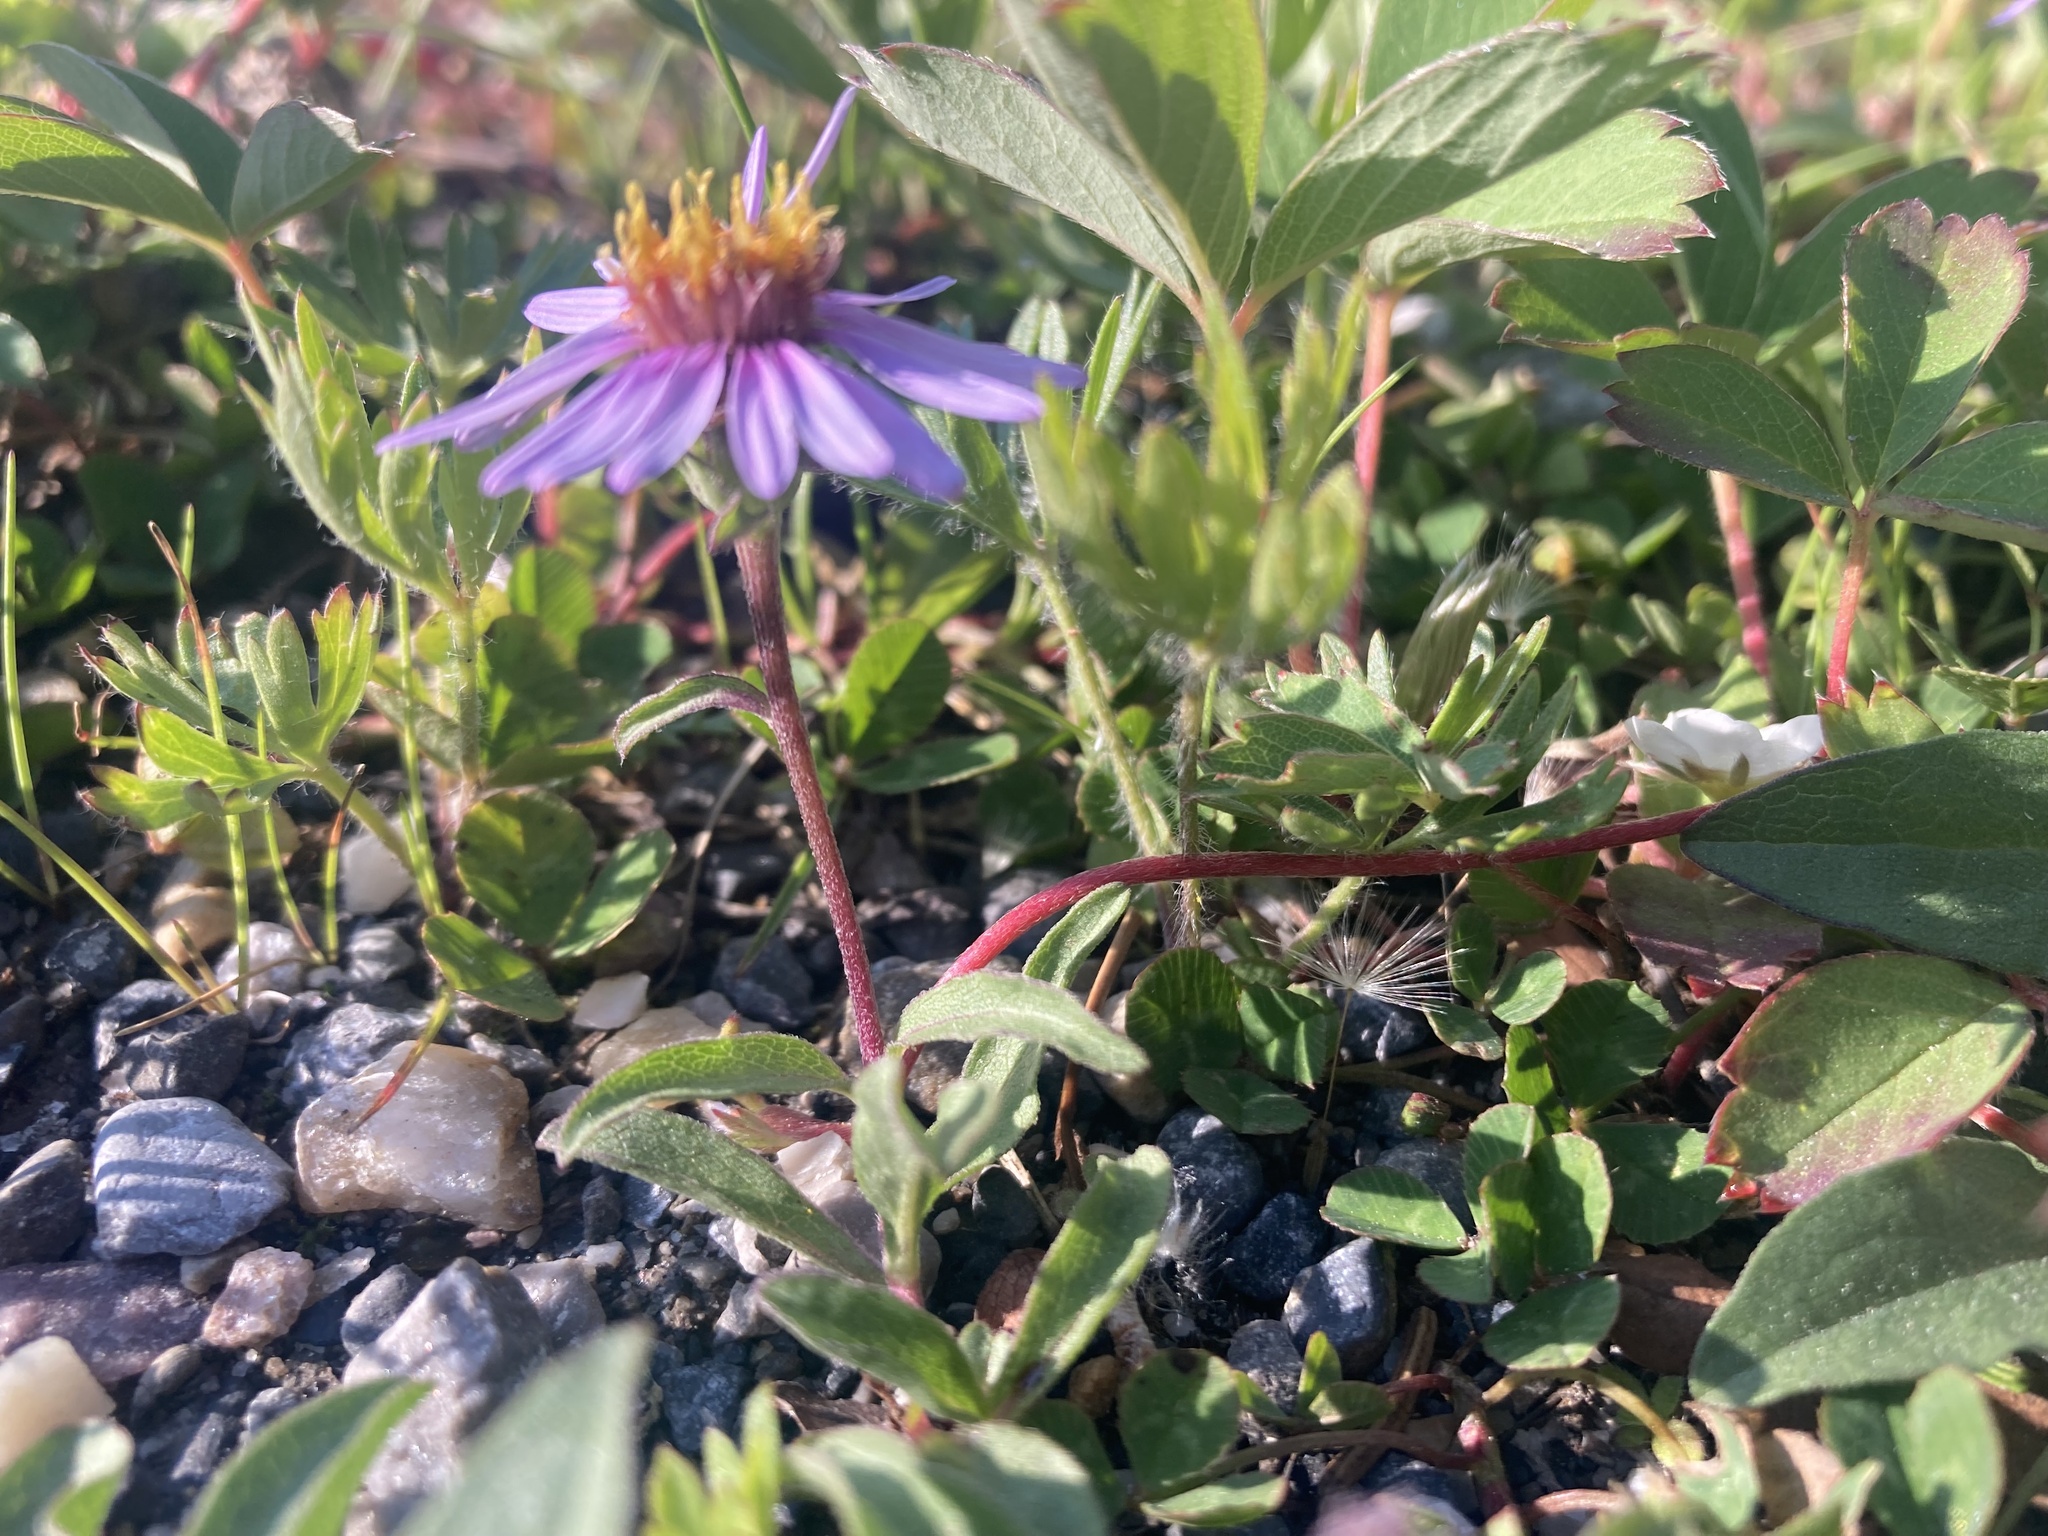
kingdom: Plantae
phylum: Tracheophyta
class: Magnoliopsida
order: Asterales
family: Asteraceae
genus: Eurybia
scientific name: Eurybia sibirica
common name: Arctic aster
